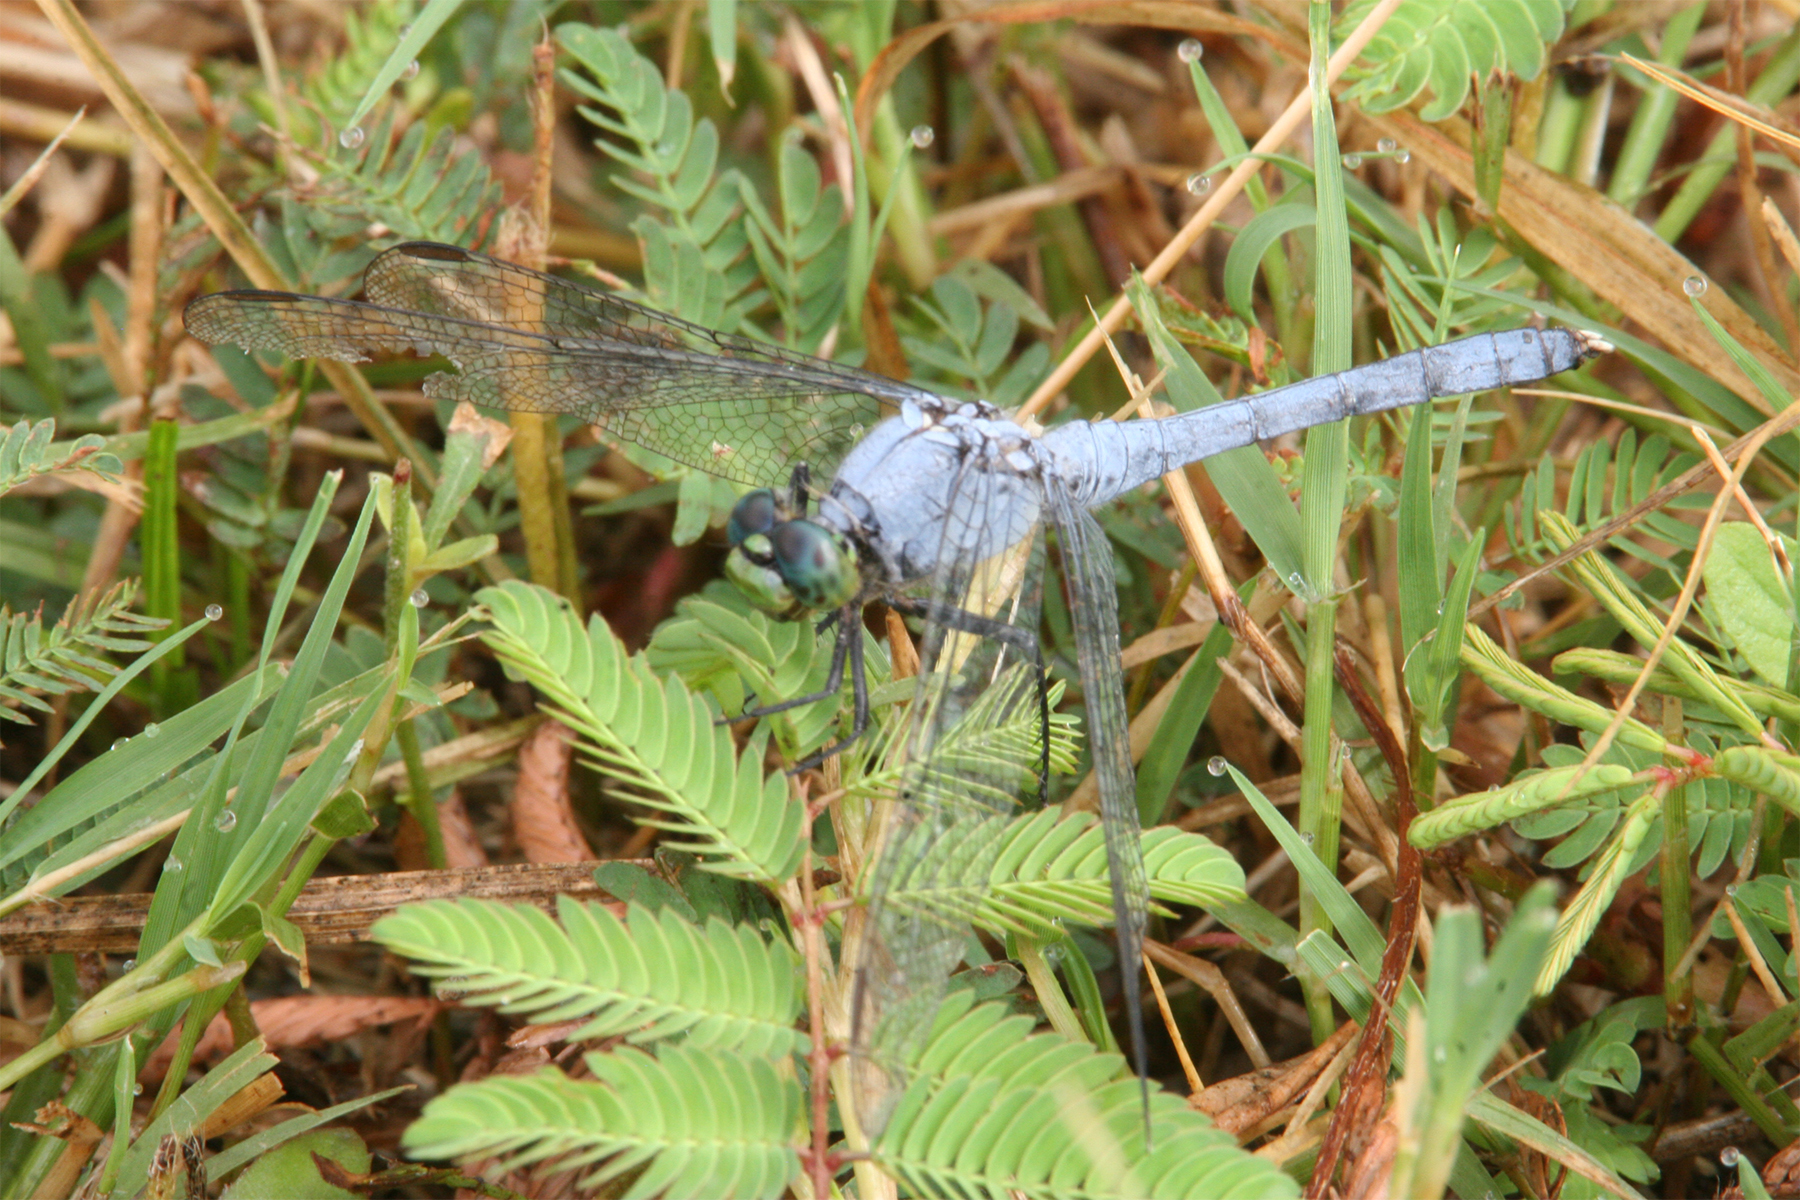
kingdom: Animalia
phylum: Arthropoda
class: Insecta
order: Odonata
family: Libellulidae
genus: Erythemis
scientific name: Erythemis simplicicollis
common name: Eastern pondhawk
